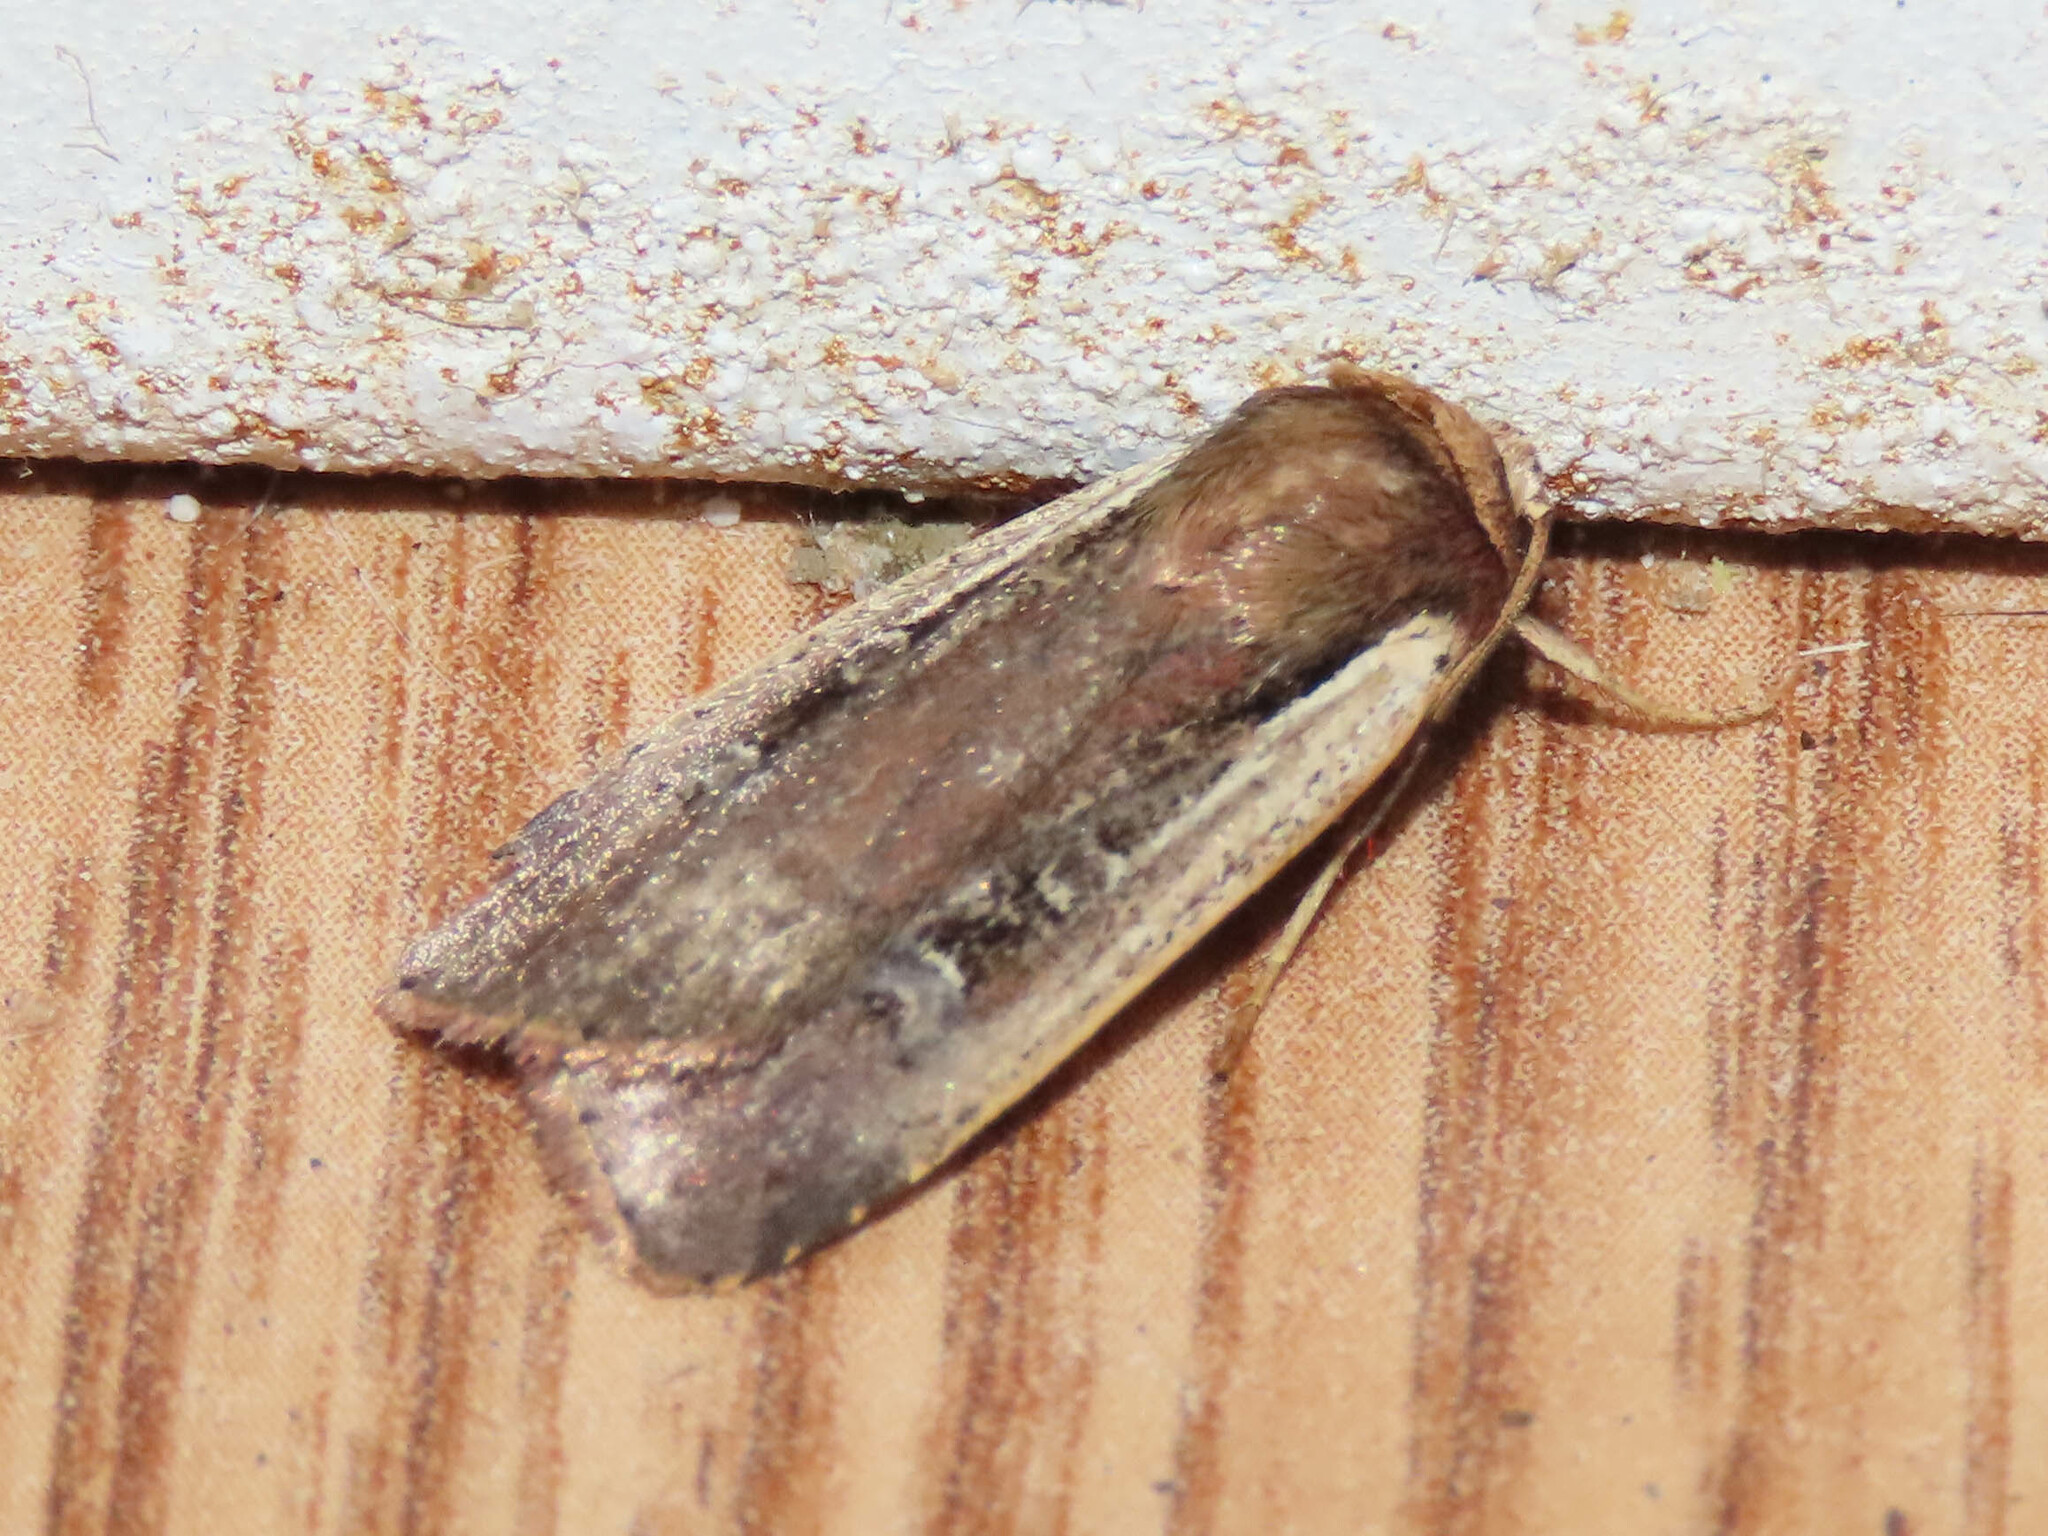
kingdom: Animalia
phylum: Arthropoda
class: Insecta
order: Lepidoptera
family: Noctuidae
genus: Ochropleura
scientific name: Ochropleura implecta
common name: Flame-shouldered dart
